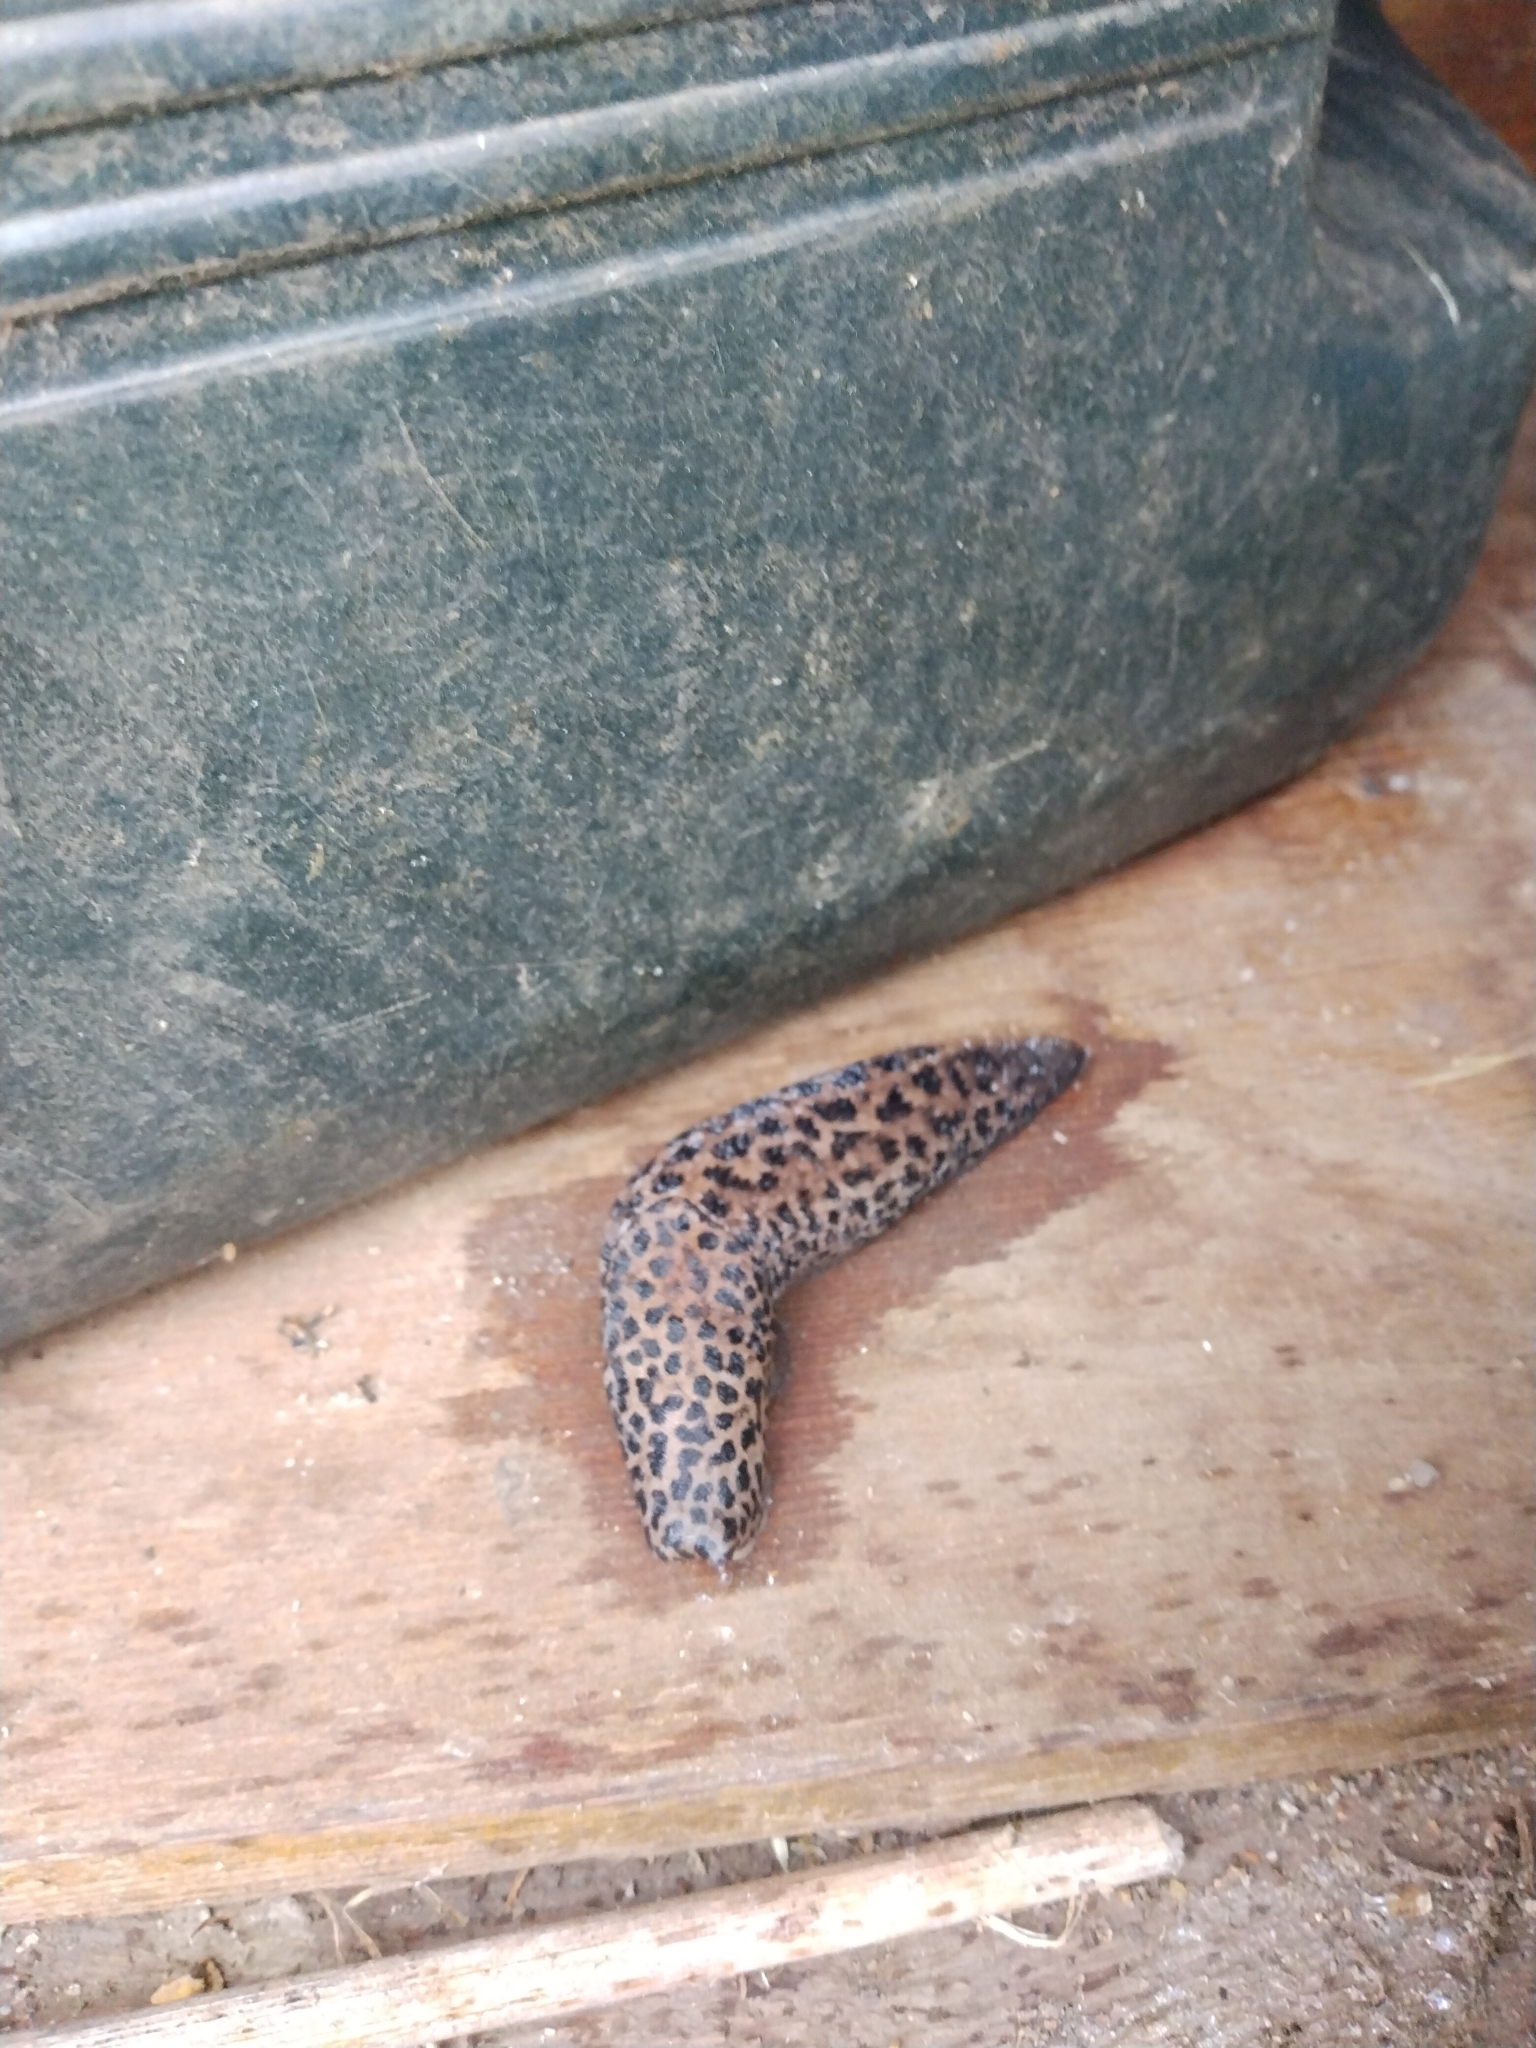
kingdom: Animalia
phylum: Mollusca
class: Gastropoda
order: Stylommatophora
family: Limacidae
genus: Limax
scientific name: Limax maximus
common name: Great grey slug
